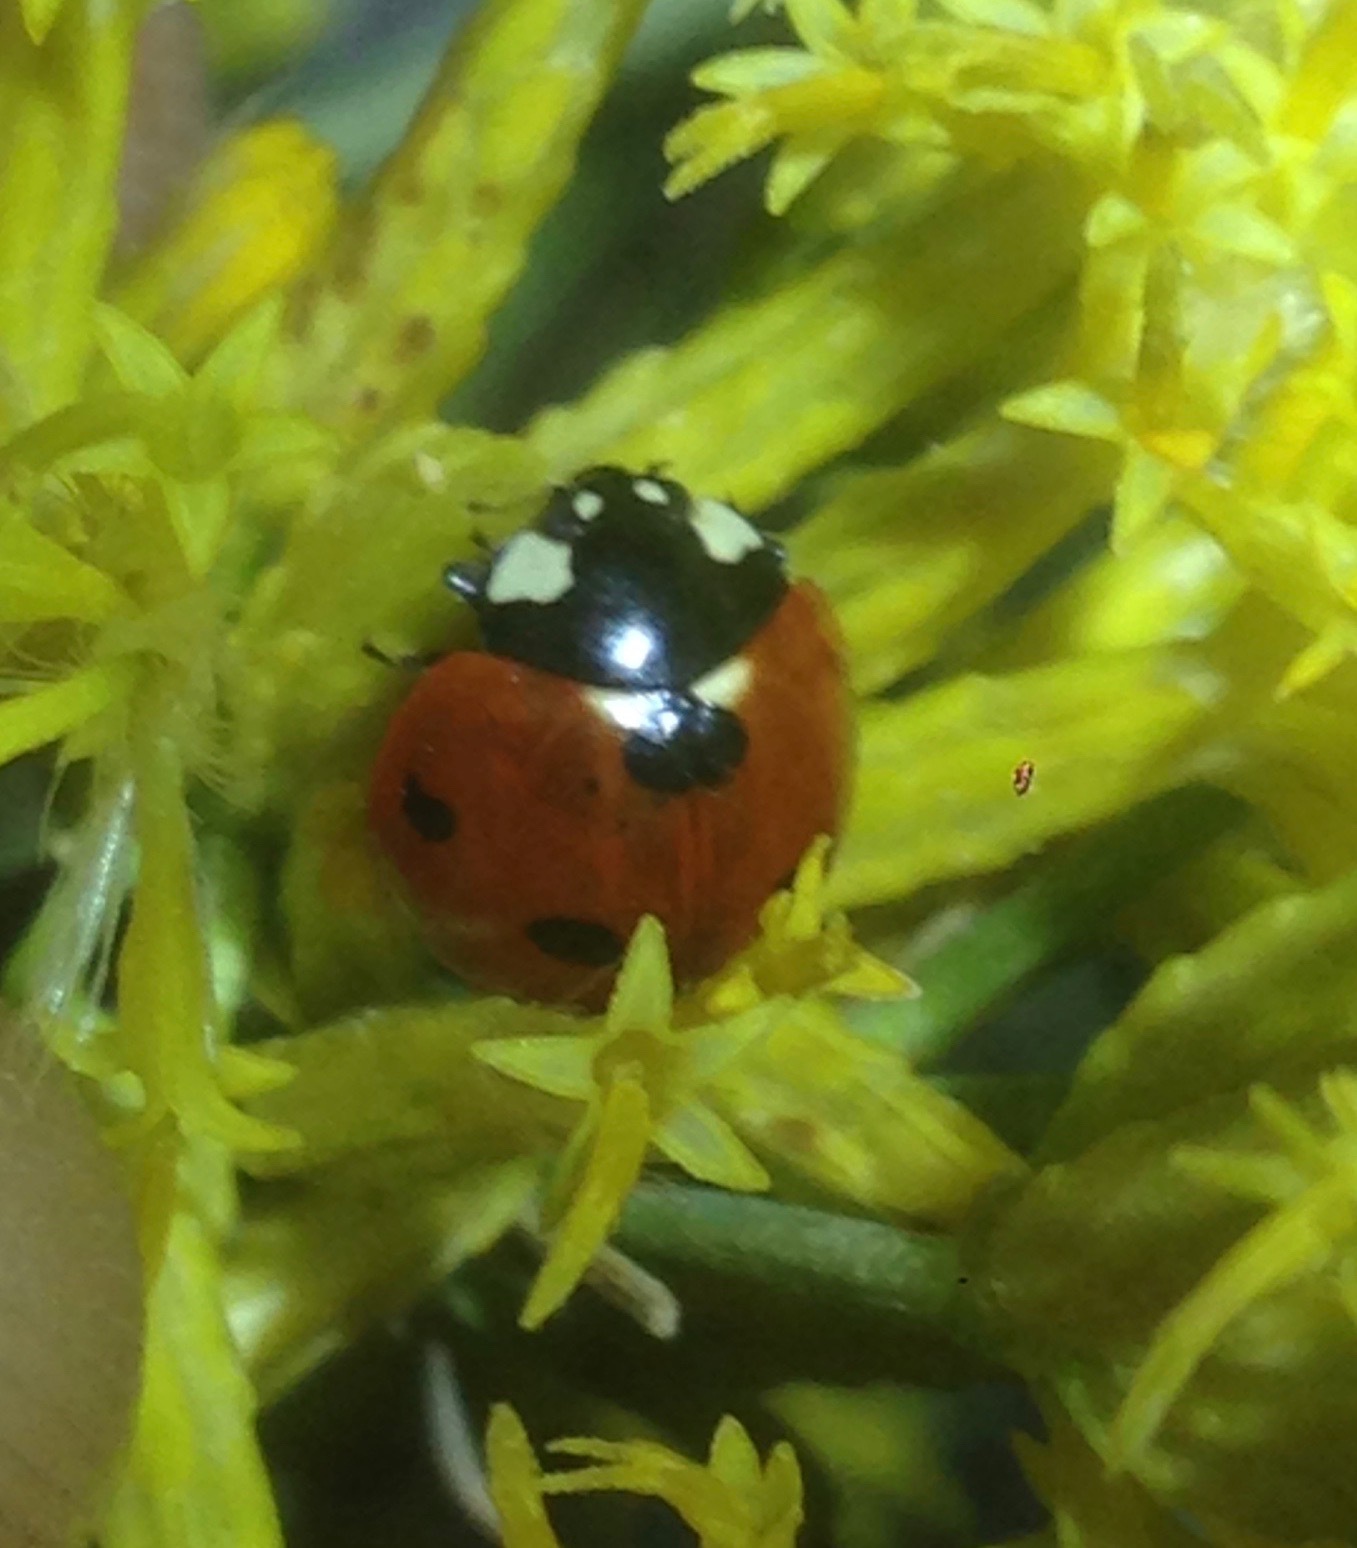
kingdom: Animalia
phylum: Arthropoda
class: Insecta
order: Coleoptera
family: Coccinellidae
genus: Coccinella
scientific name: Coccinella septempunctata
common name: Sevenspotted lady beetle
